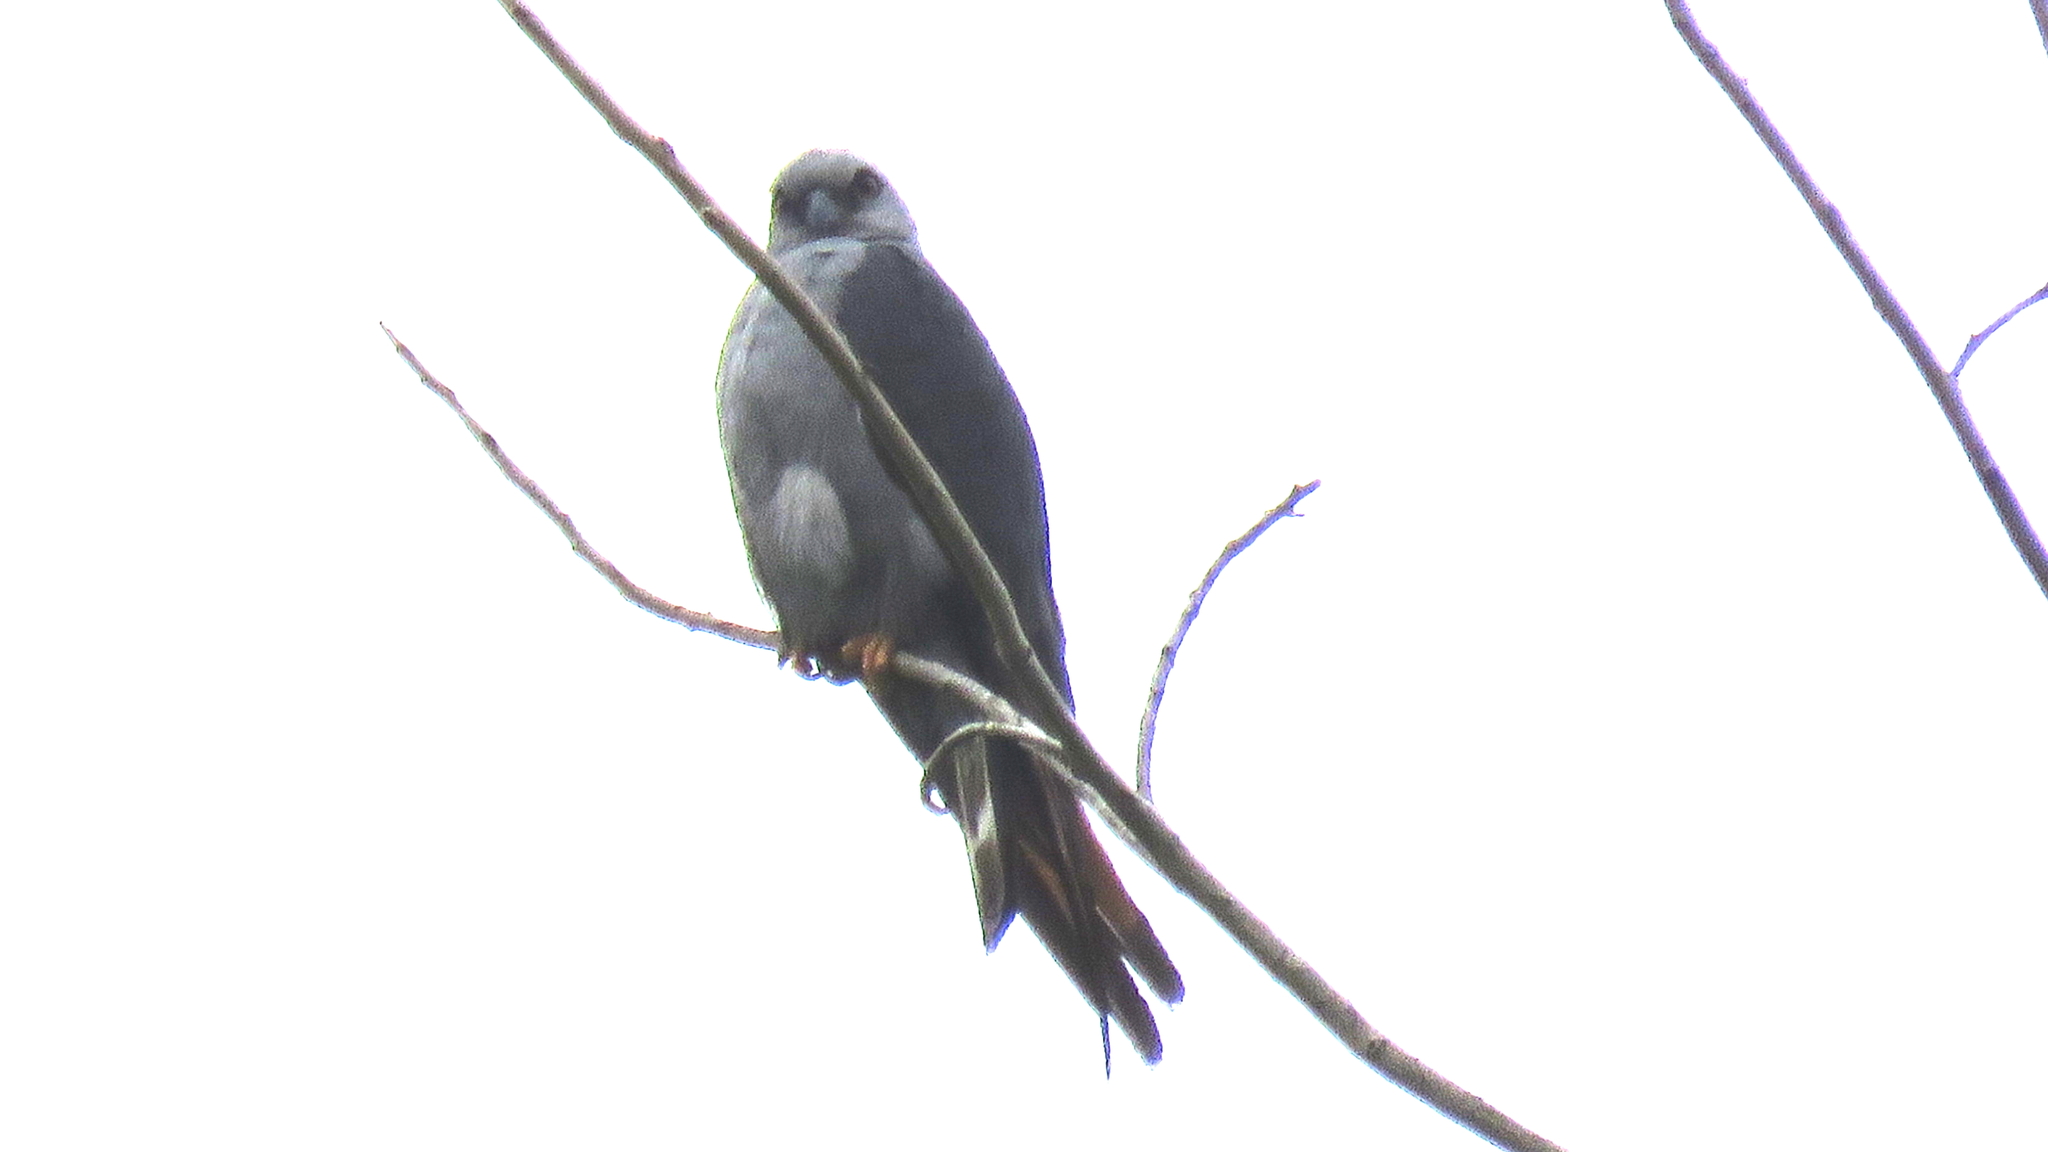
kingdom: Animalia
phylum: Chordata
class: Aves
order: Accipitriformes
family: Accipitridae
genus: Ictinia
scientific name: Ictinia plumbea
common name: Plumbeous kite
